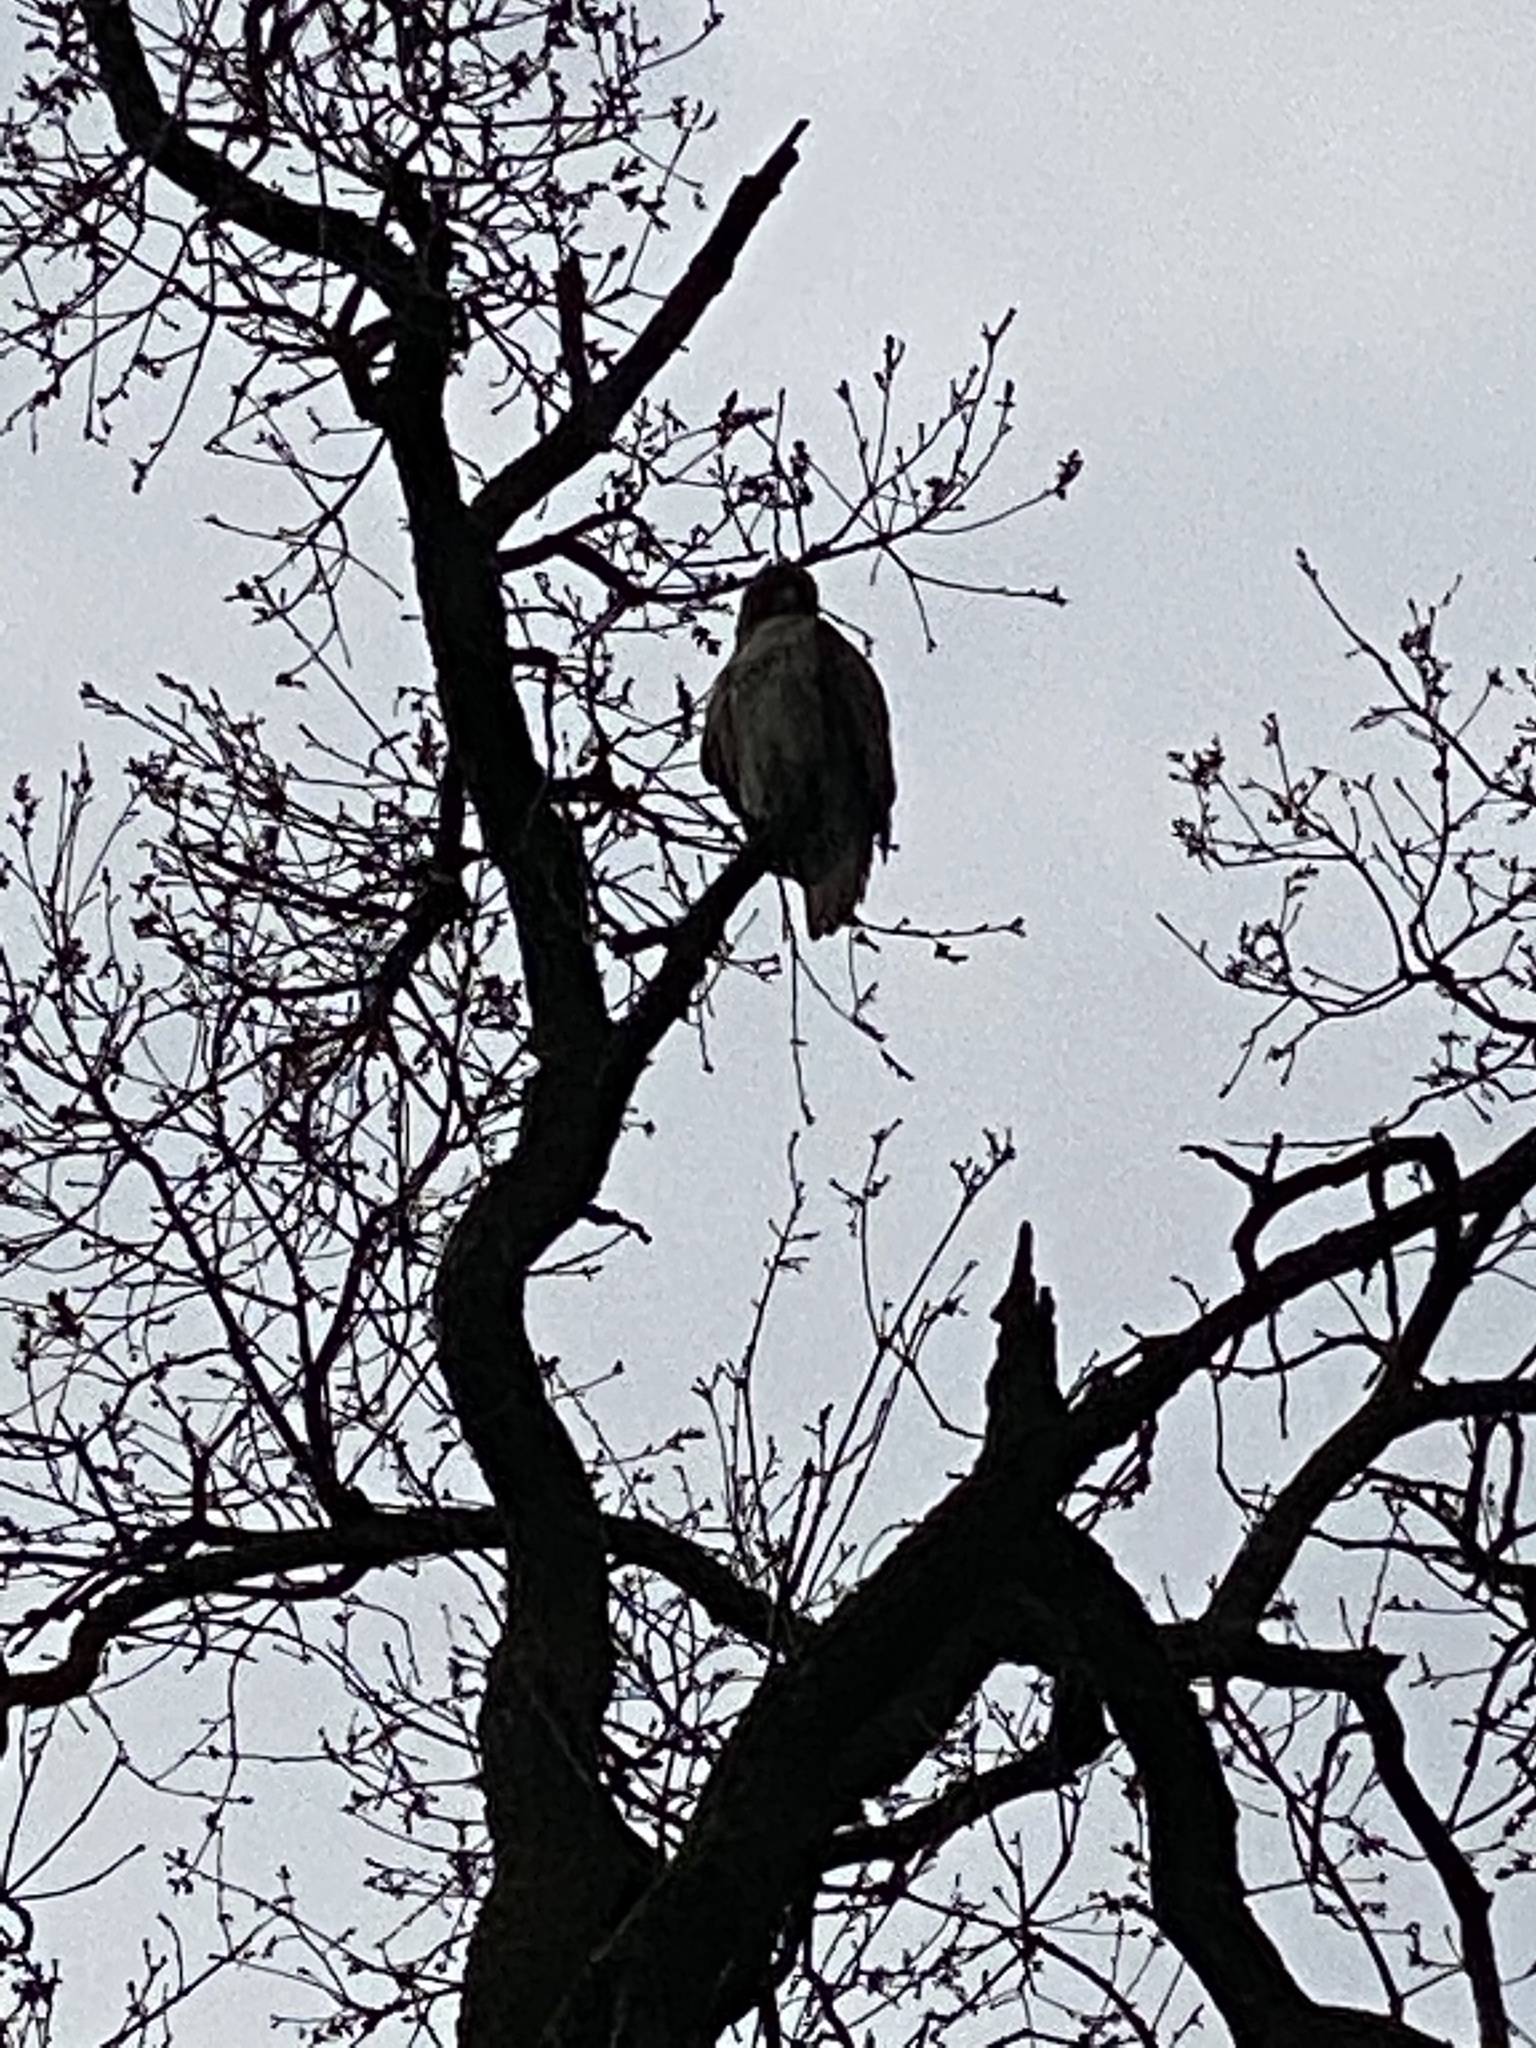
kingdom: Animalia
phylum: Chordata
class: Aves
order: Accipitriformes
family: Accipitridae
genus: Buteo
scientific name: Buteo jamaicensis
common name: Red-tailed hawk
